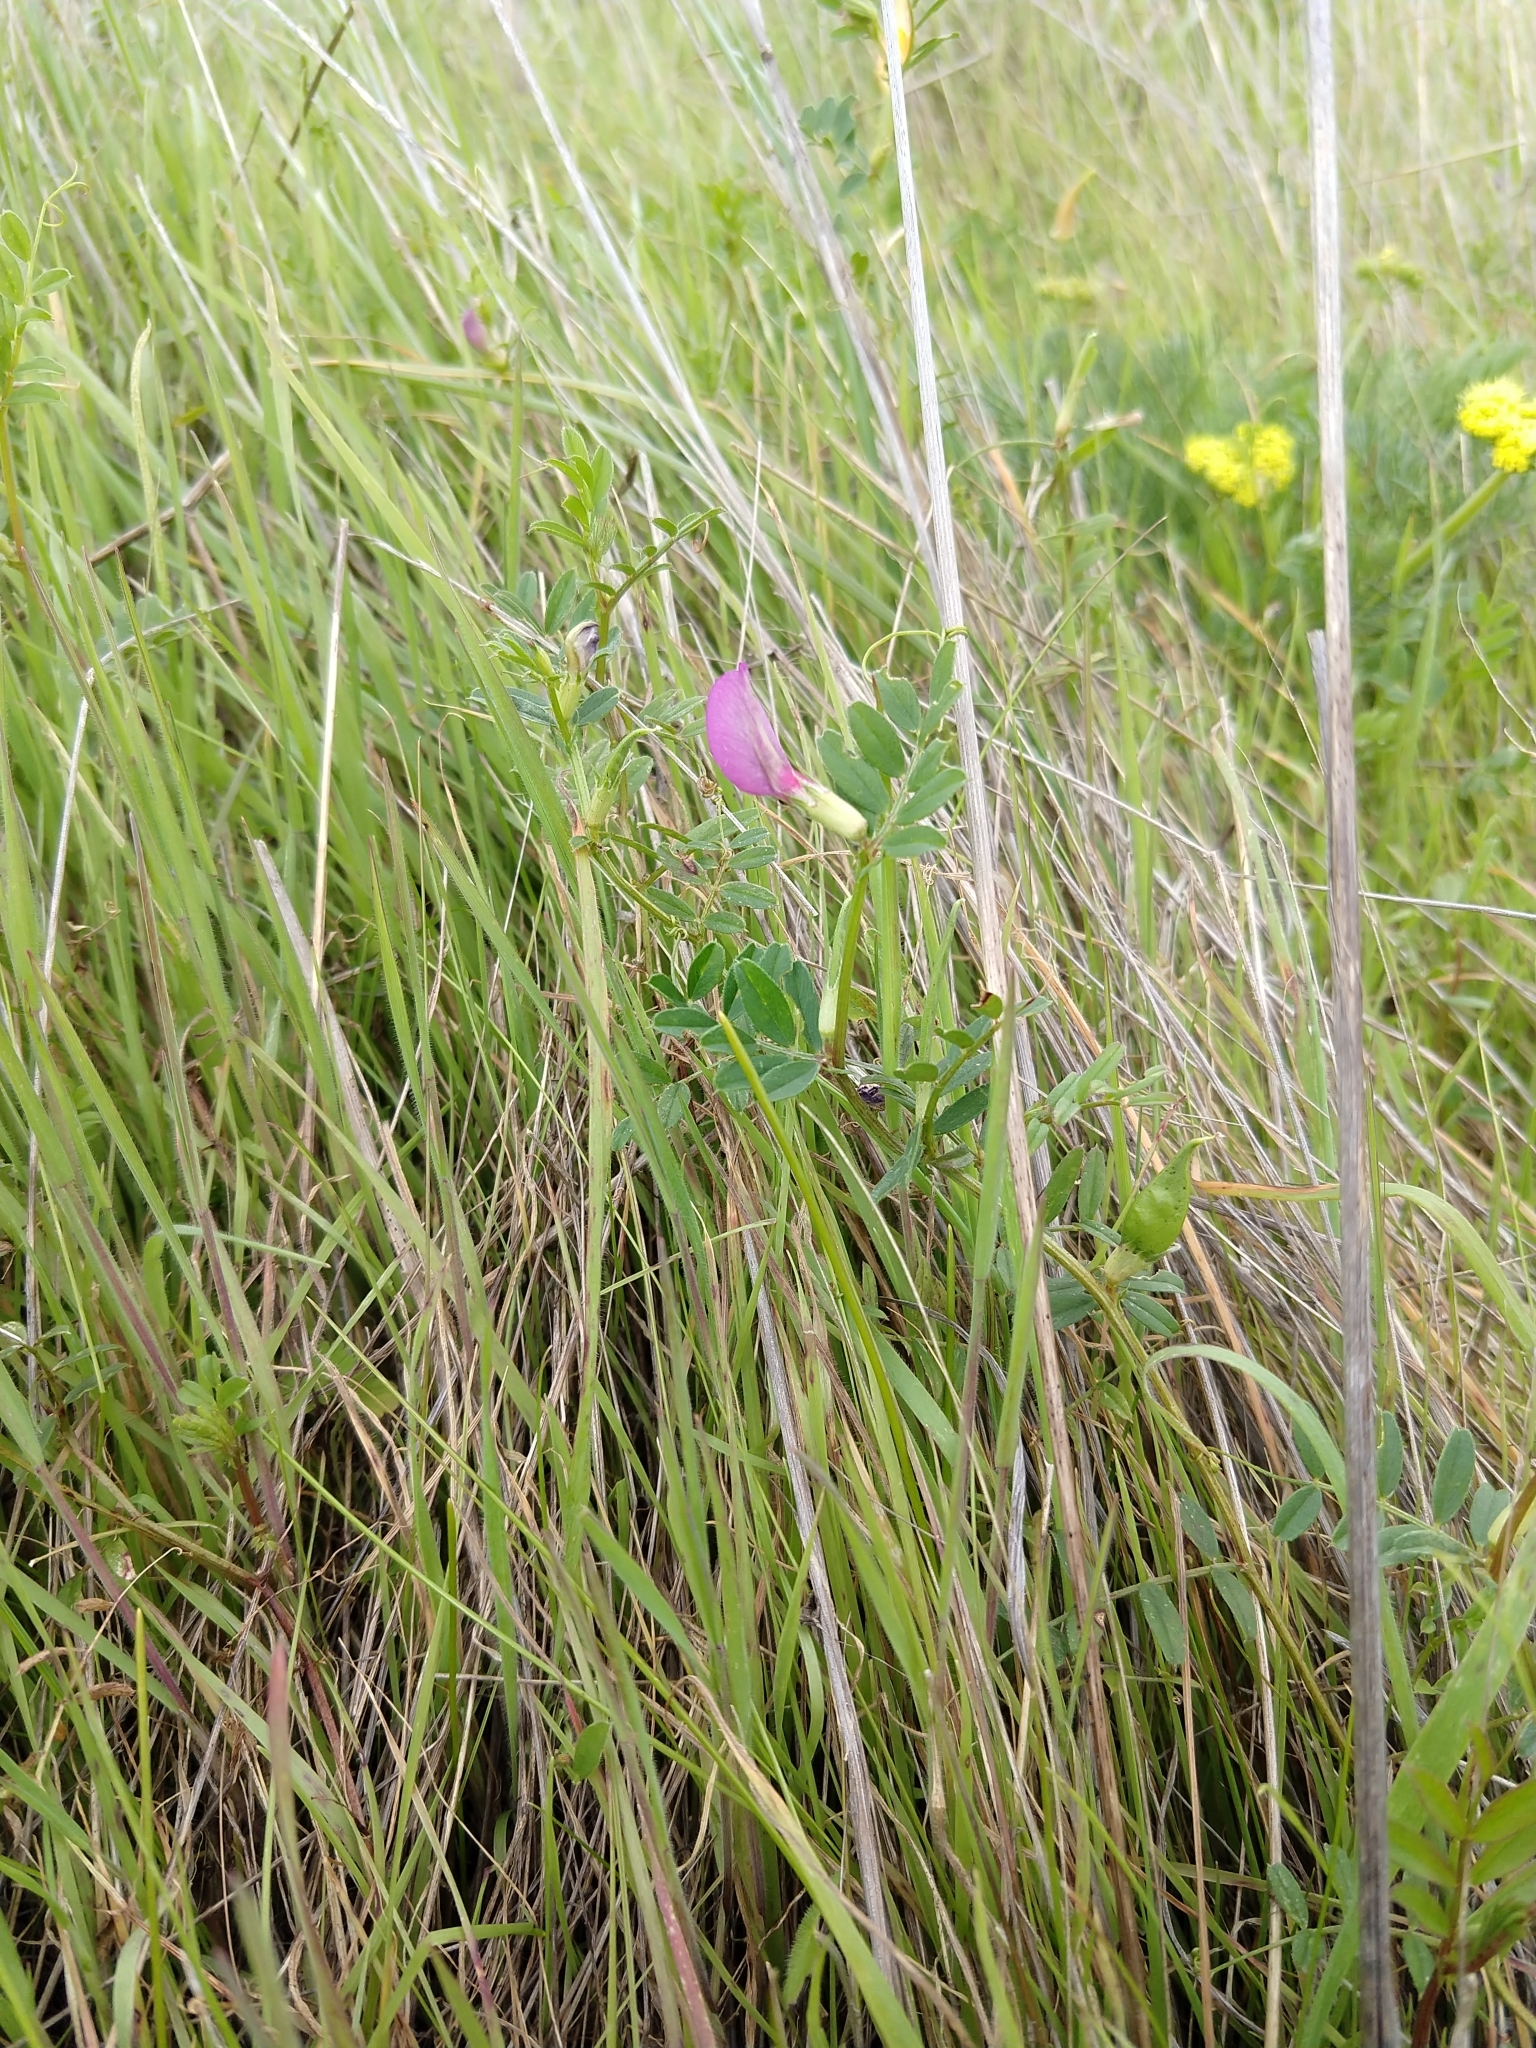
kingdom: Plantae
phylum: Tracheophyta
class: Magnoliopsida
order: Fabales
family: Fabaceae
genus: Vicia
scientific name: Vicia sativa
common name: Garden vetch
